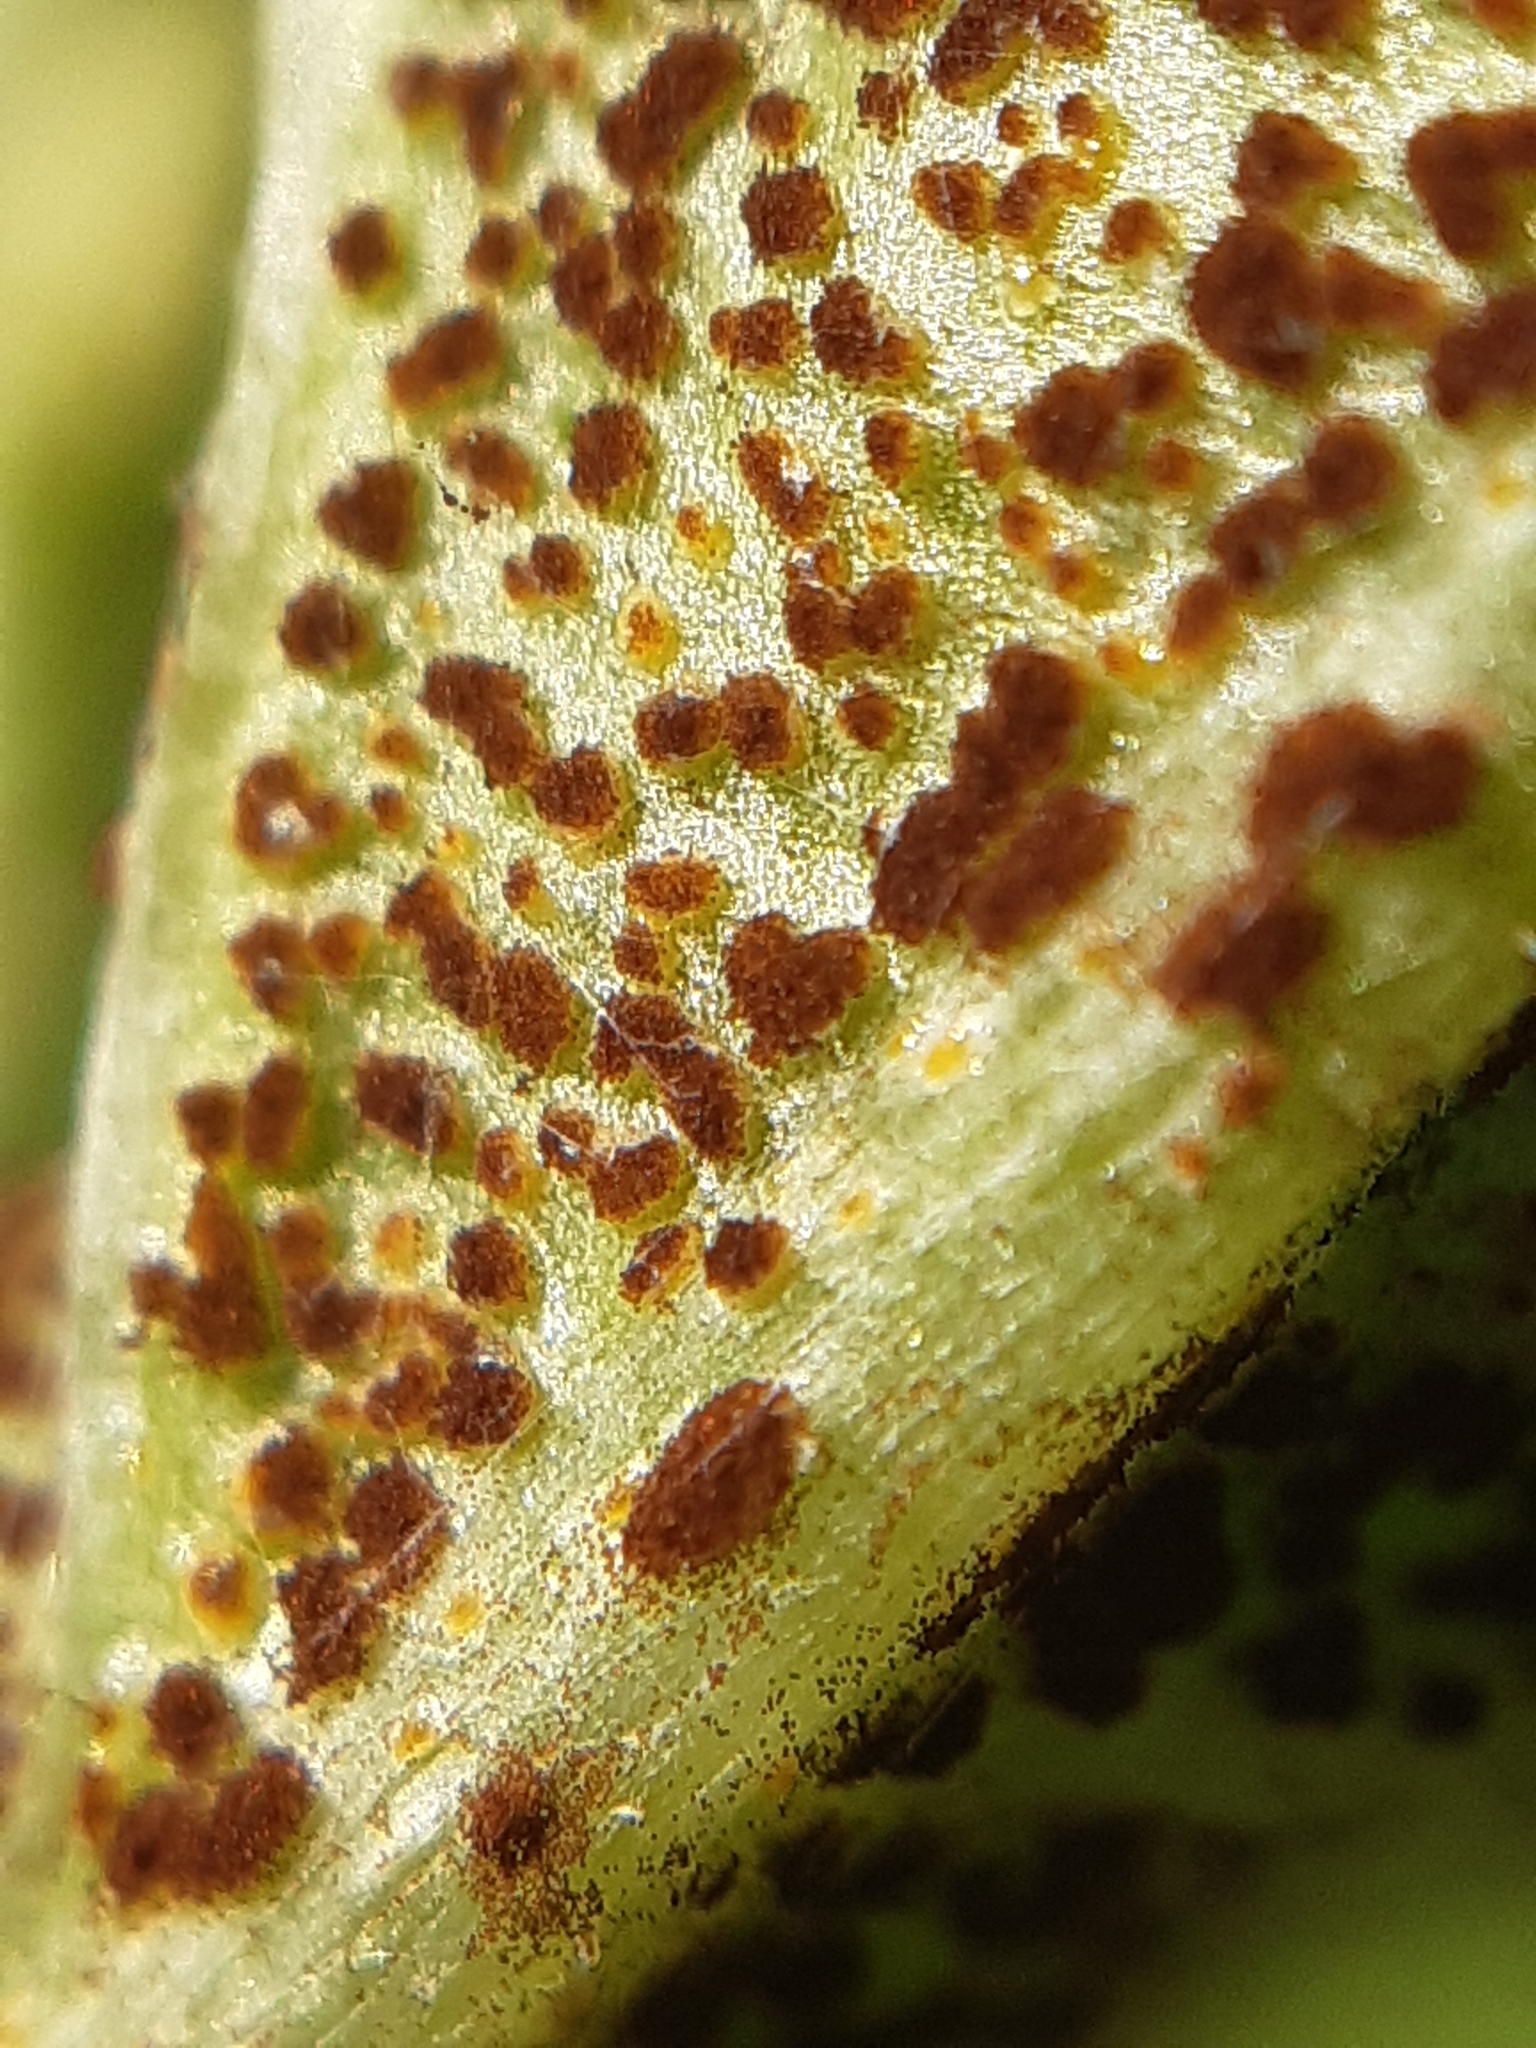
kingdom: Fungi
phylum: Basidiomycota
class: Pucciniomycetes
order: Pucciniales
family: Pucciniaceae
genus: Puccinia
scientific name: Puccinia suaveolens
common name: Thistle rust
